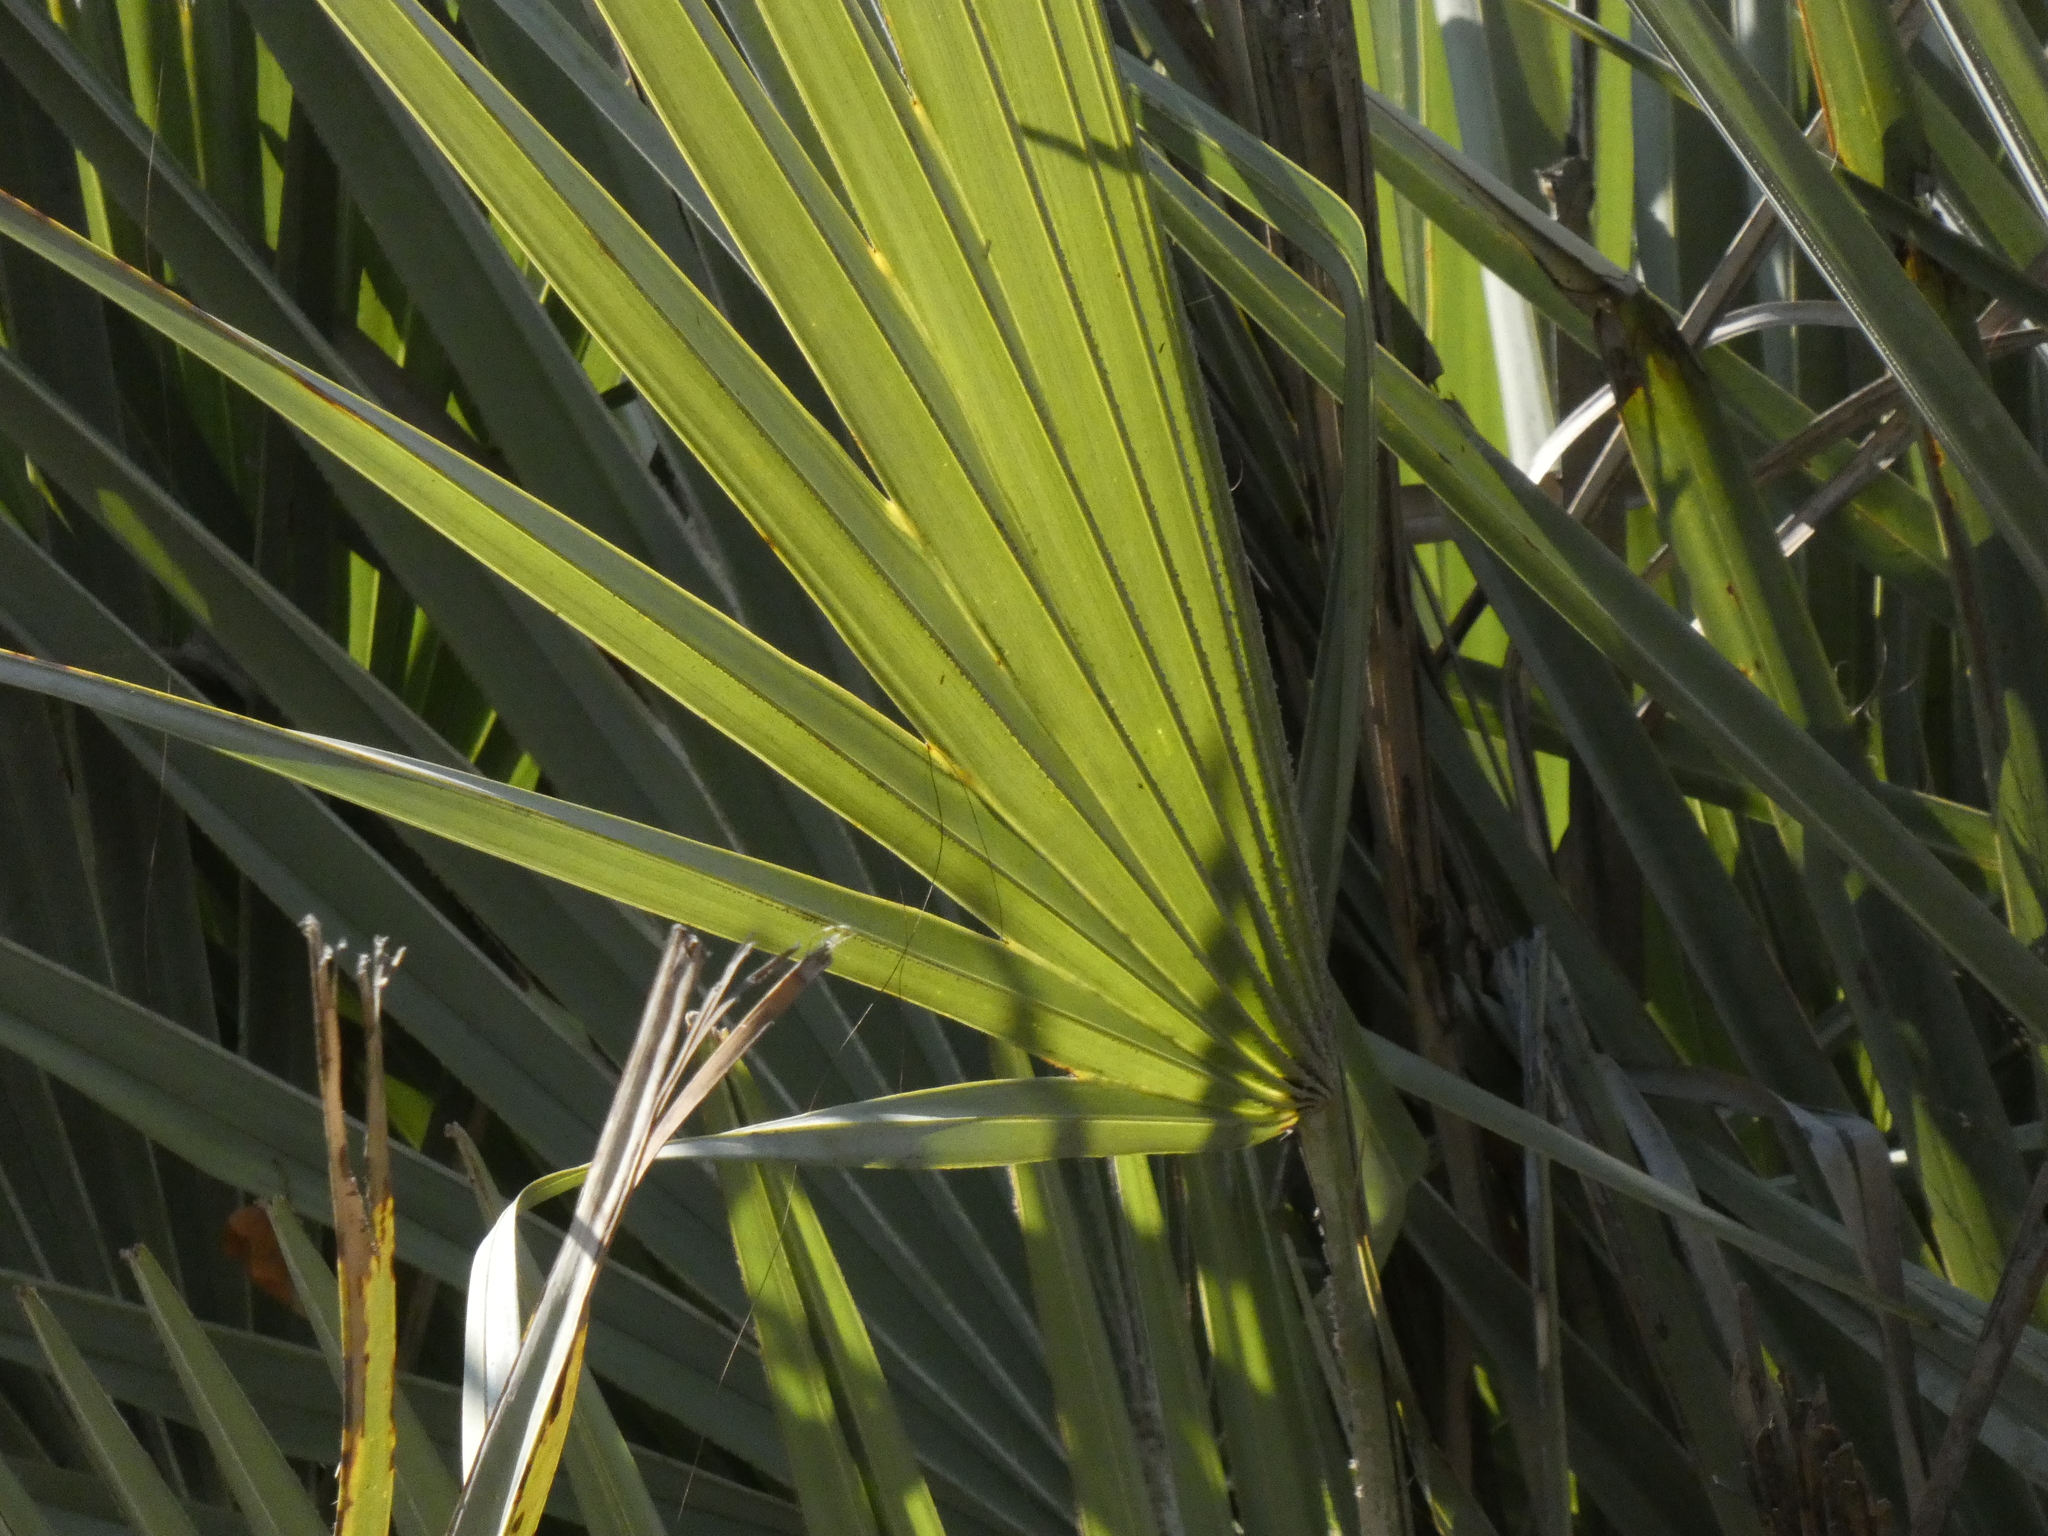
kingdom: Plantae
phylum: Tracheophyta
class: Liliopsida
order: Arecales
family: Arecaceae
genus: Hyphaene
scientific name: Hyphaene petersiana
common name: African ivory nut palm
